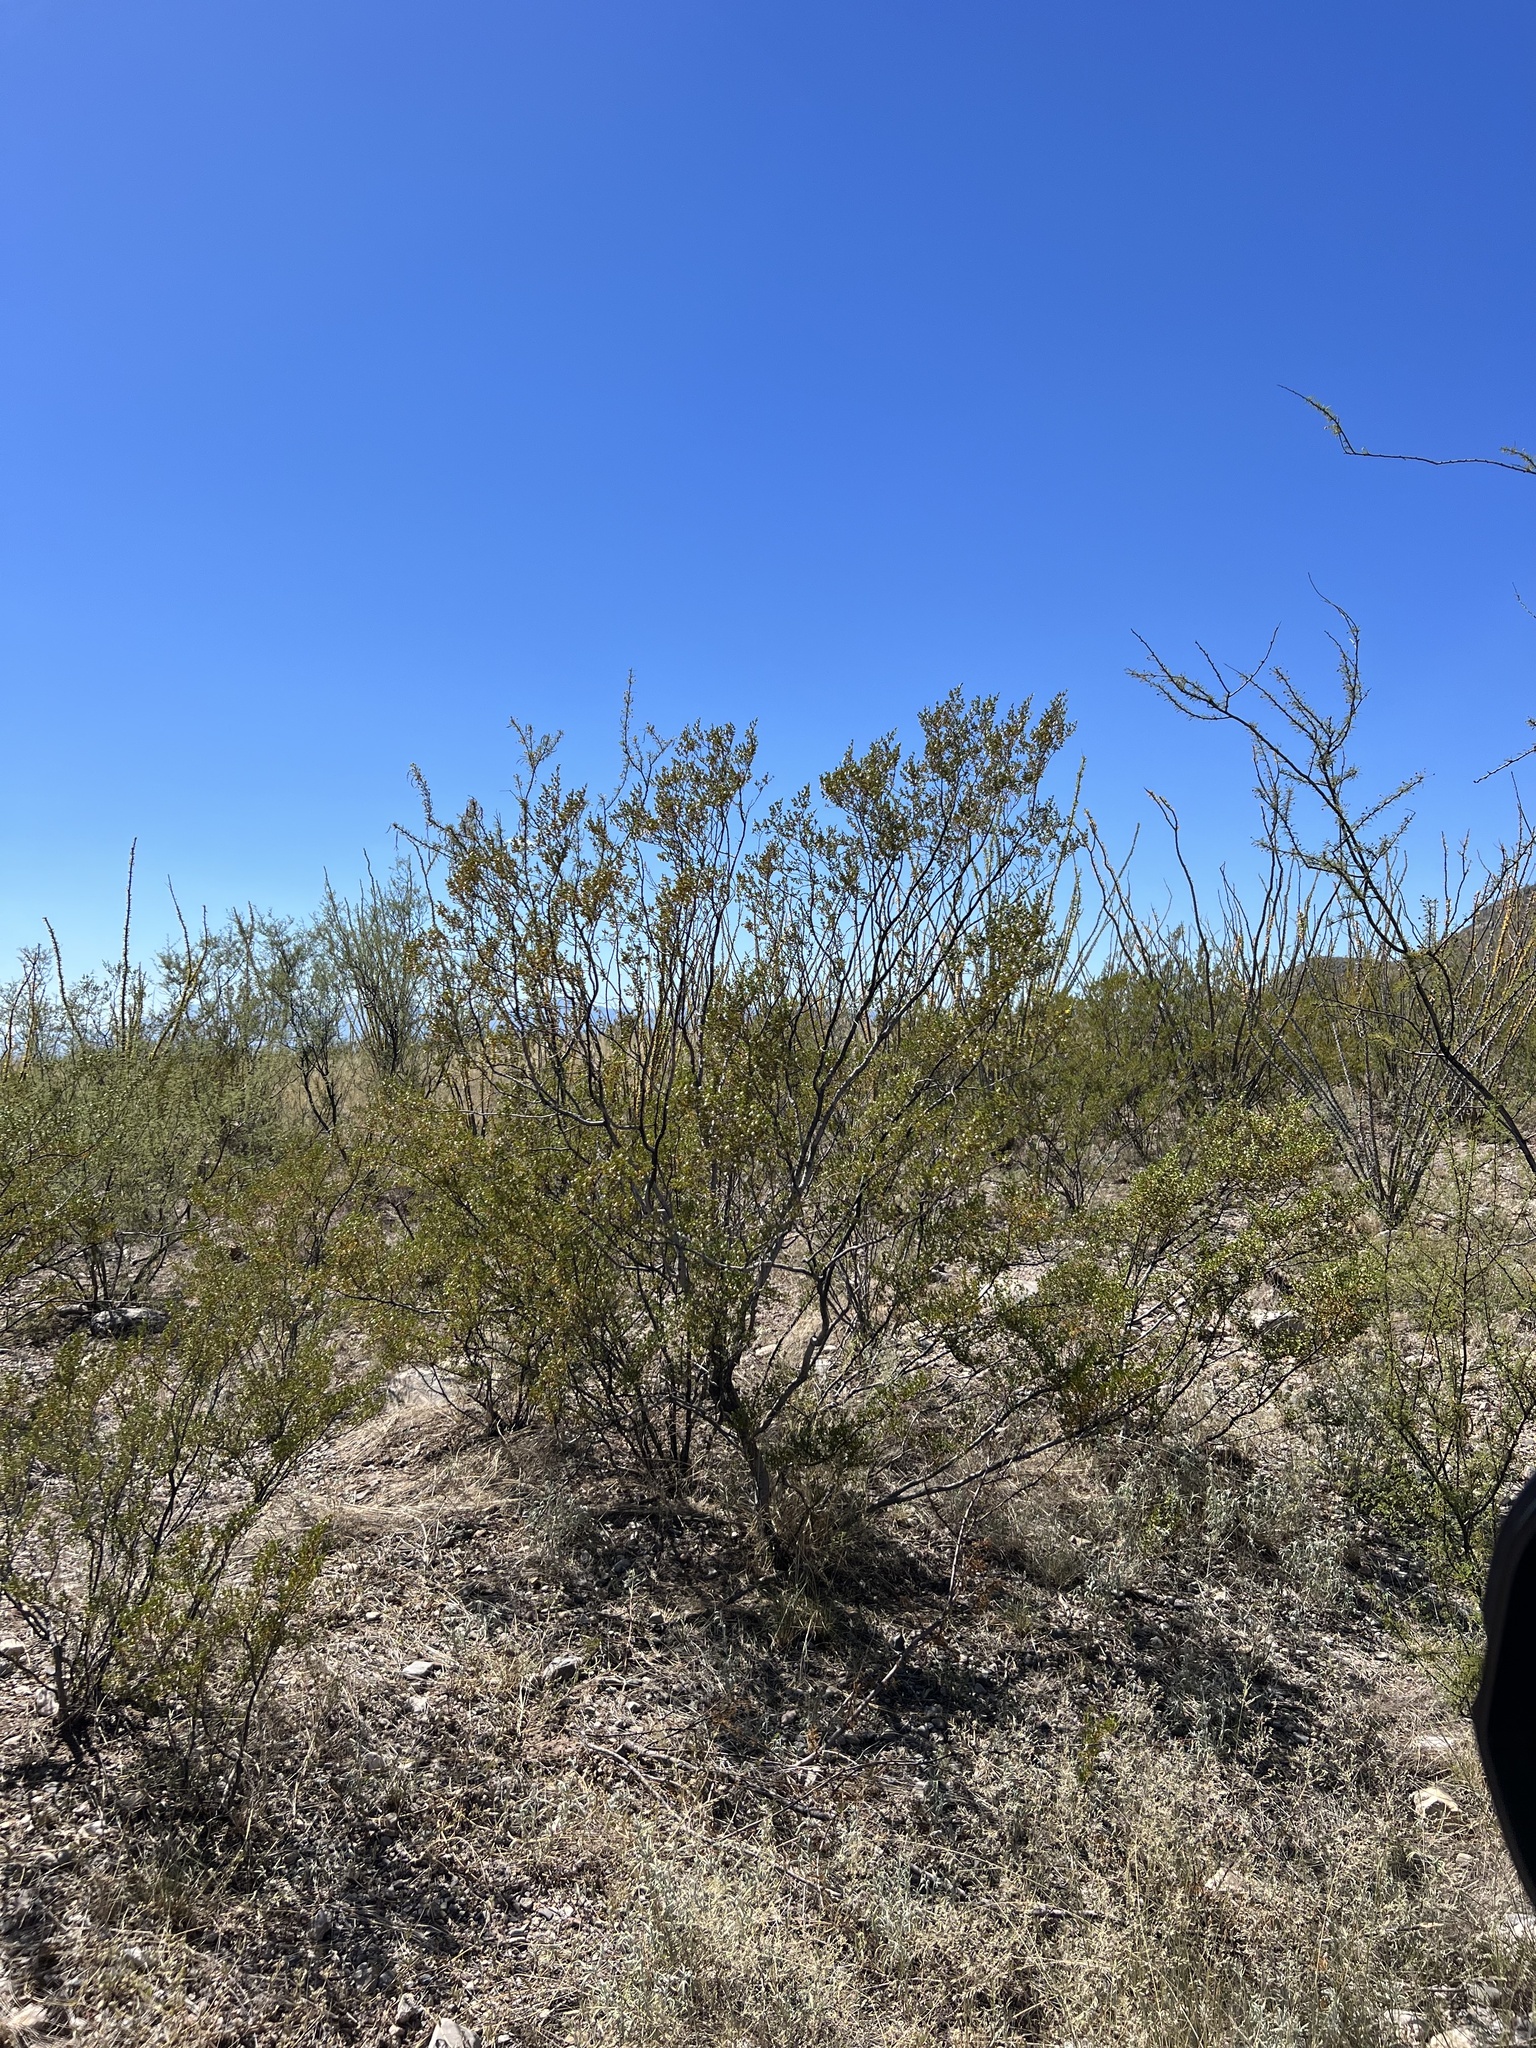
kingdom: Plantae
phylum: Tracheophyta
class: Magnoliopsida
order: Zygophyllales
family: Zygophyllaceae
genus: Larrea
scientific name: Larrea tridentata
